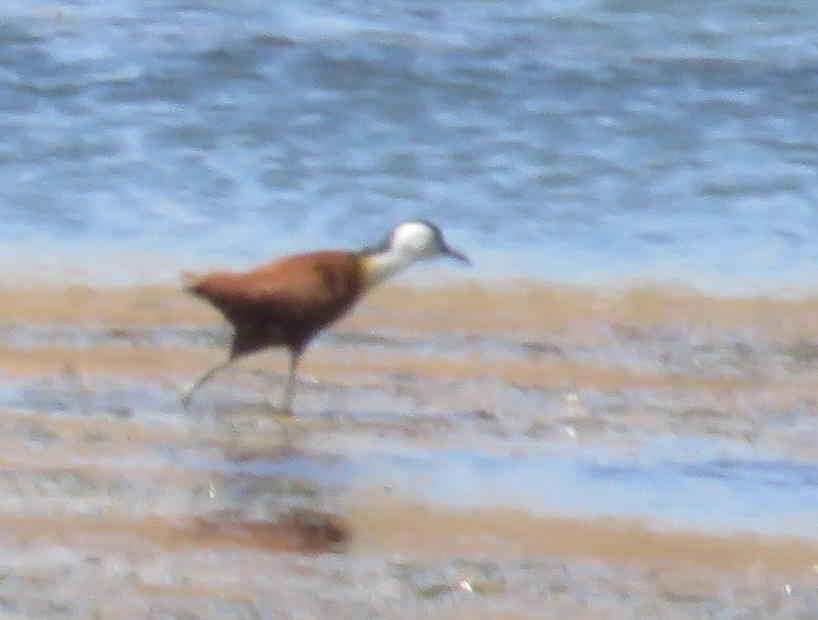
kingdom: Animalia
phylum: Chordata
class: Aves
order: Charadriiformes
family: Jacanidae
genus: Actophilornis
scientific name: Actophilornis africanus
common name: African jacana
